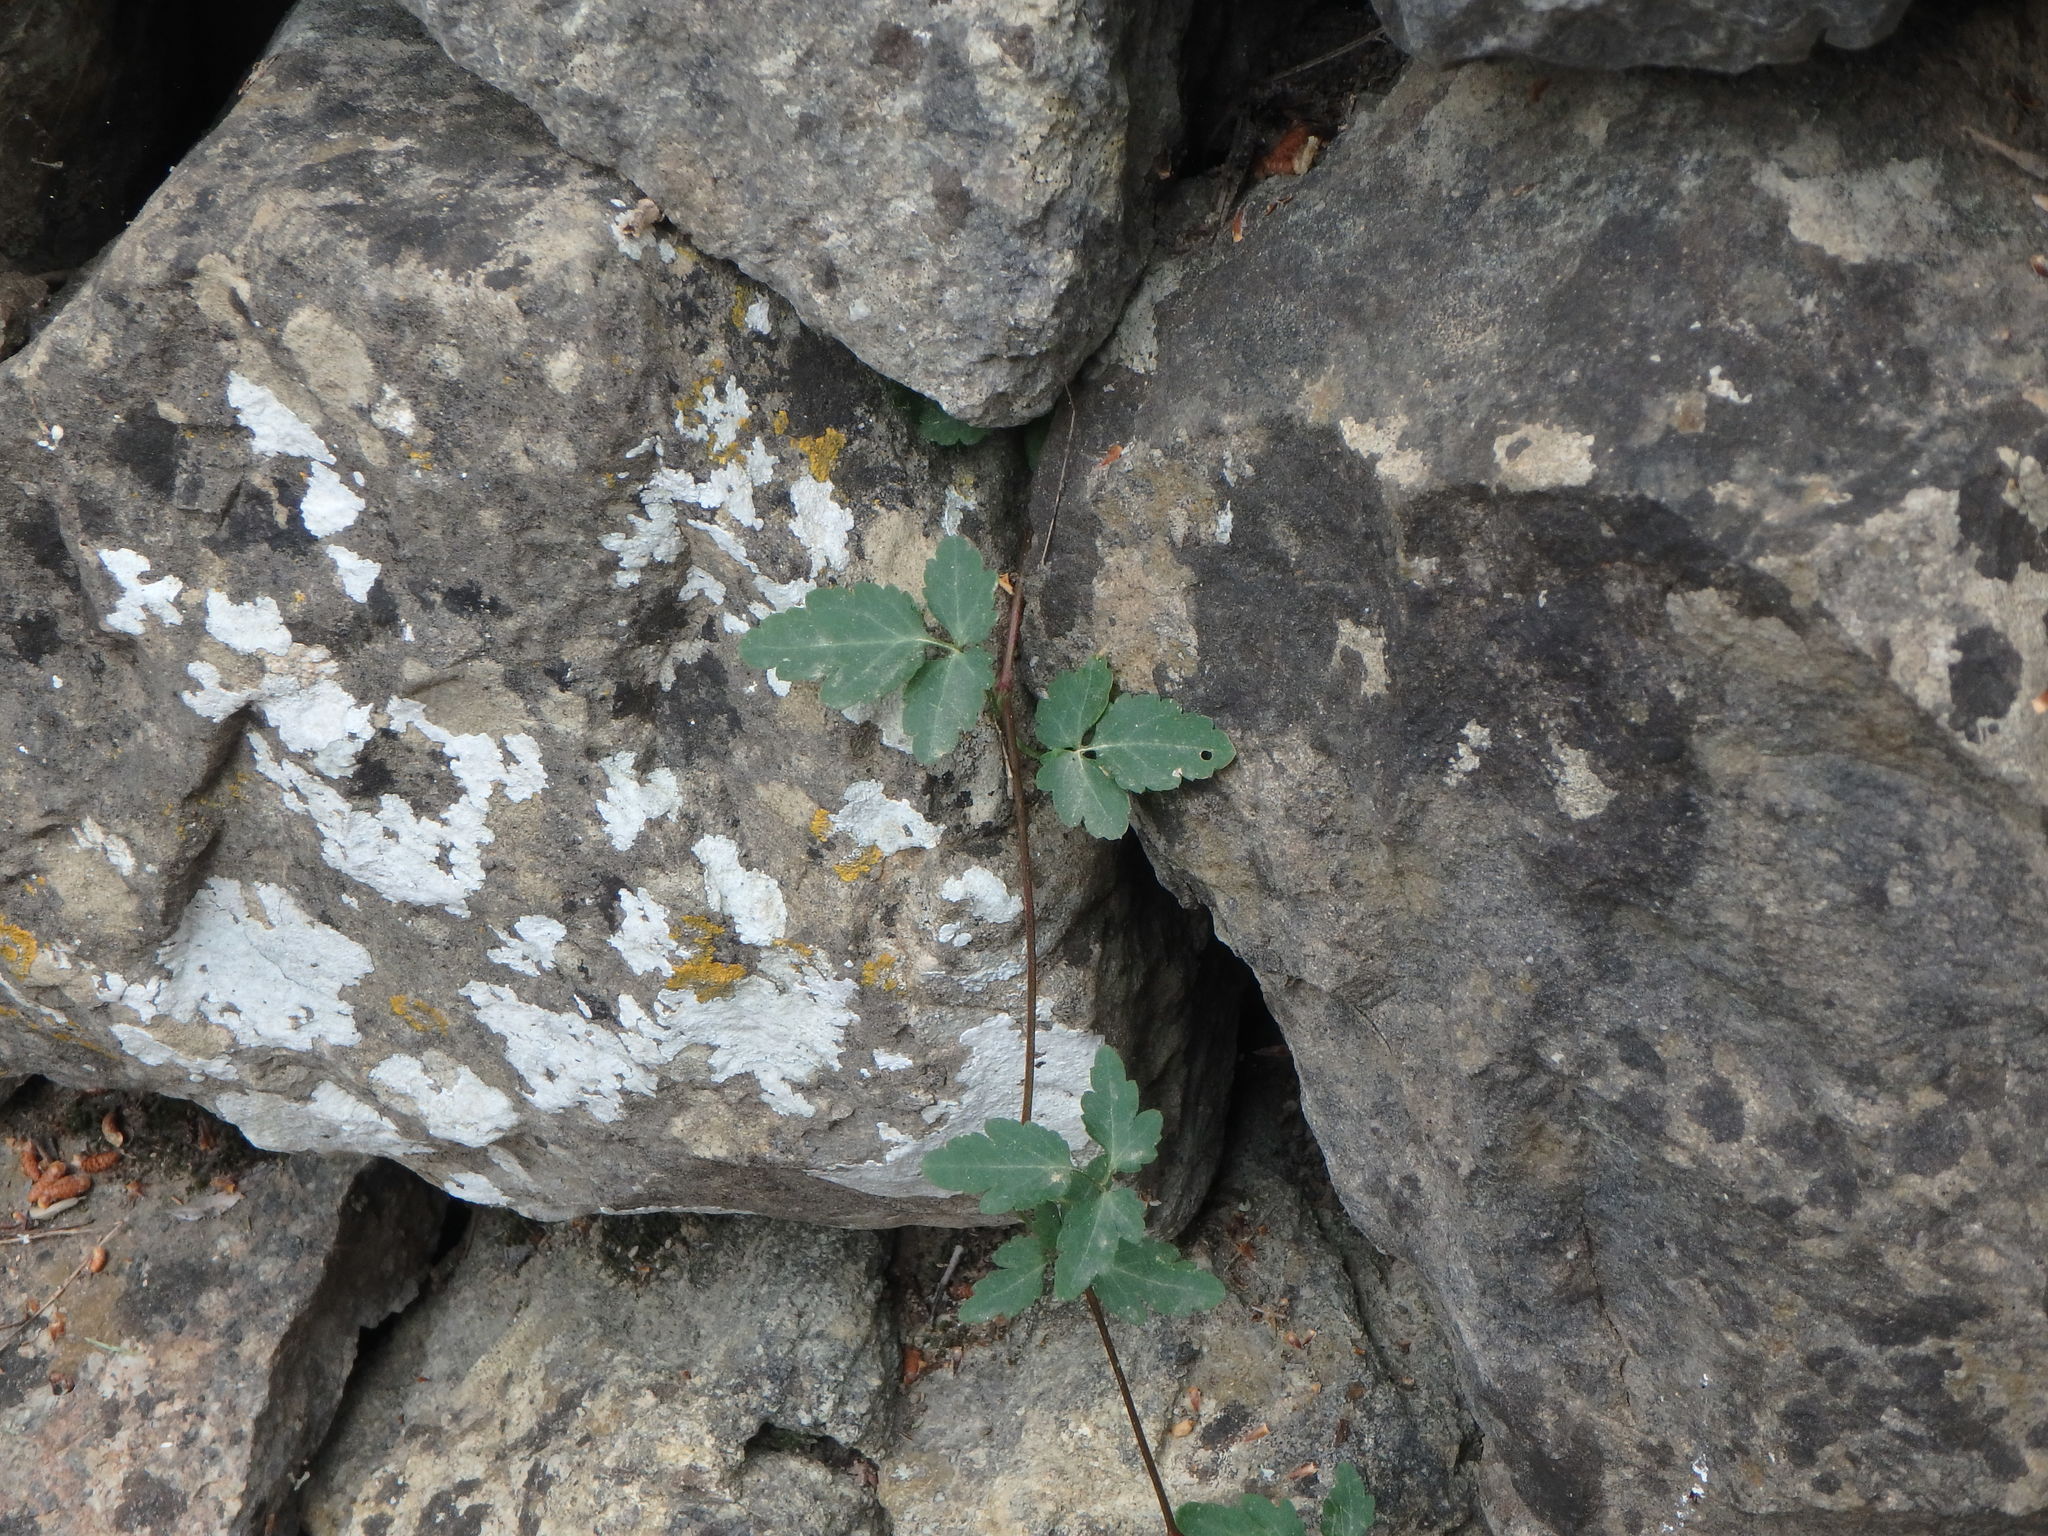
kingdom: Plantae
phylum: Tracheophyta
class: Magnoliopsida
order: Ranunculales
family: Ranunculaceae
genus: Clematis
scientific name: Clematis cirrhosa
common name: Early virgin's-bower
